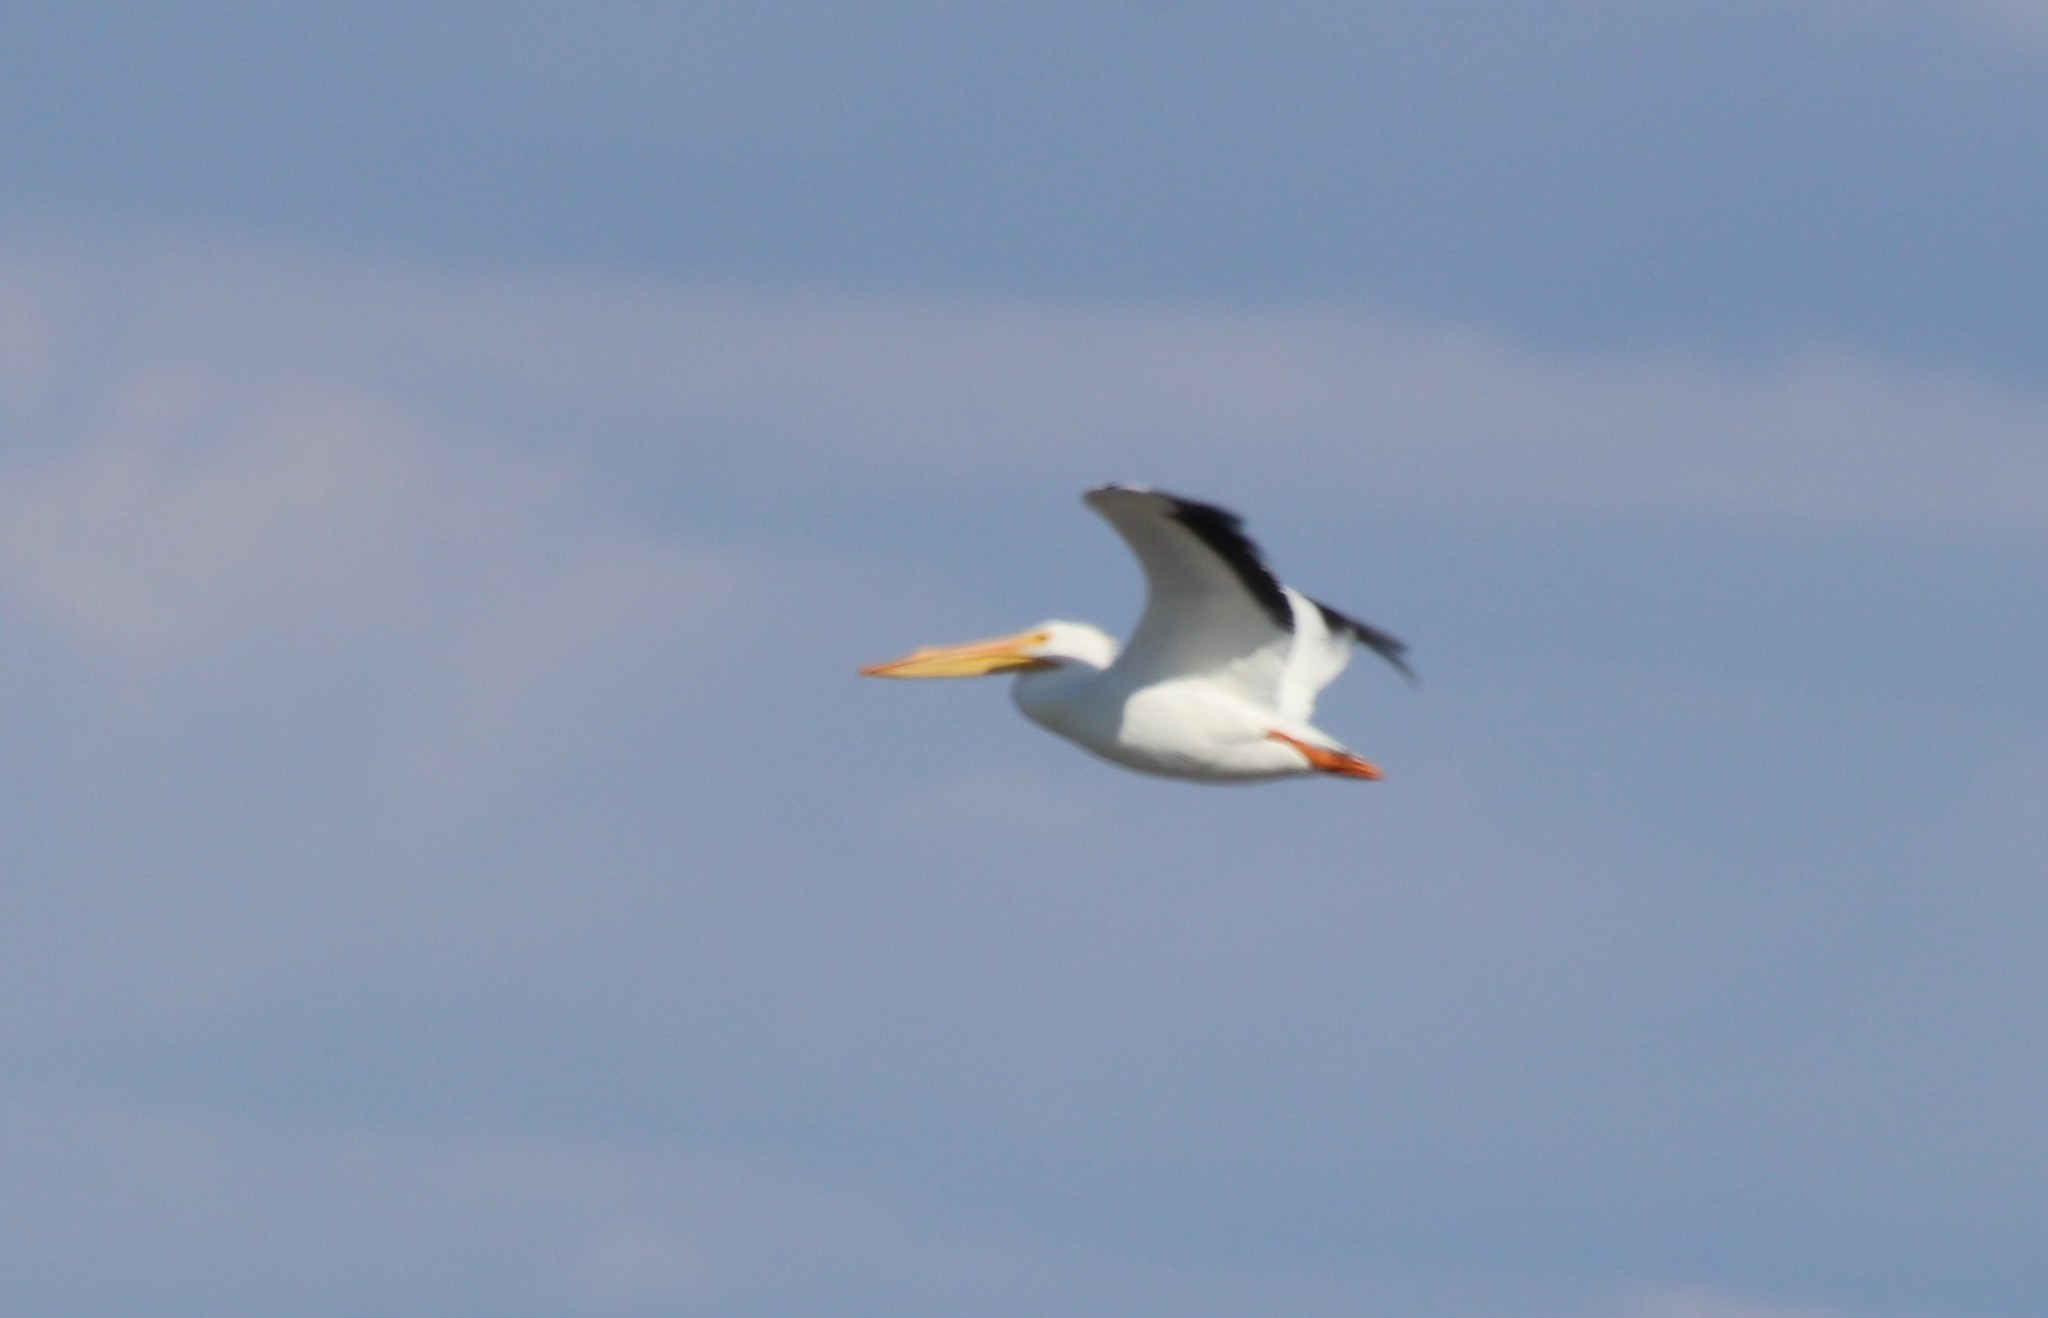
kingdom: Animalia
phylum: Chordata
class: Aves
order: Pelecaniformes
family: Pelecanidae
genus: Pelecanus
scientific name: Pelecanus erythrorhynchos
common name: American white pelican
